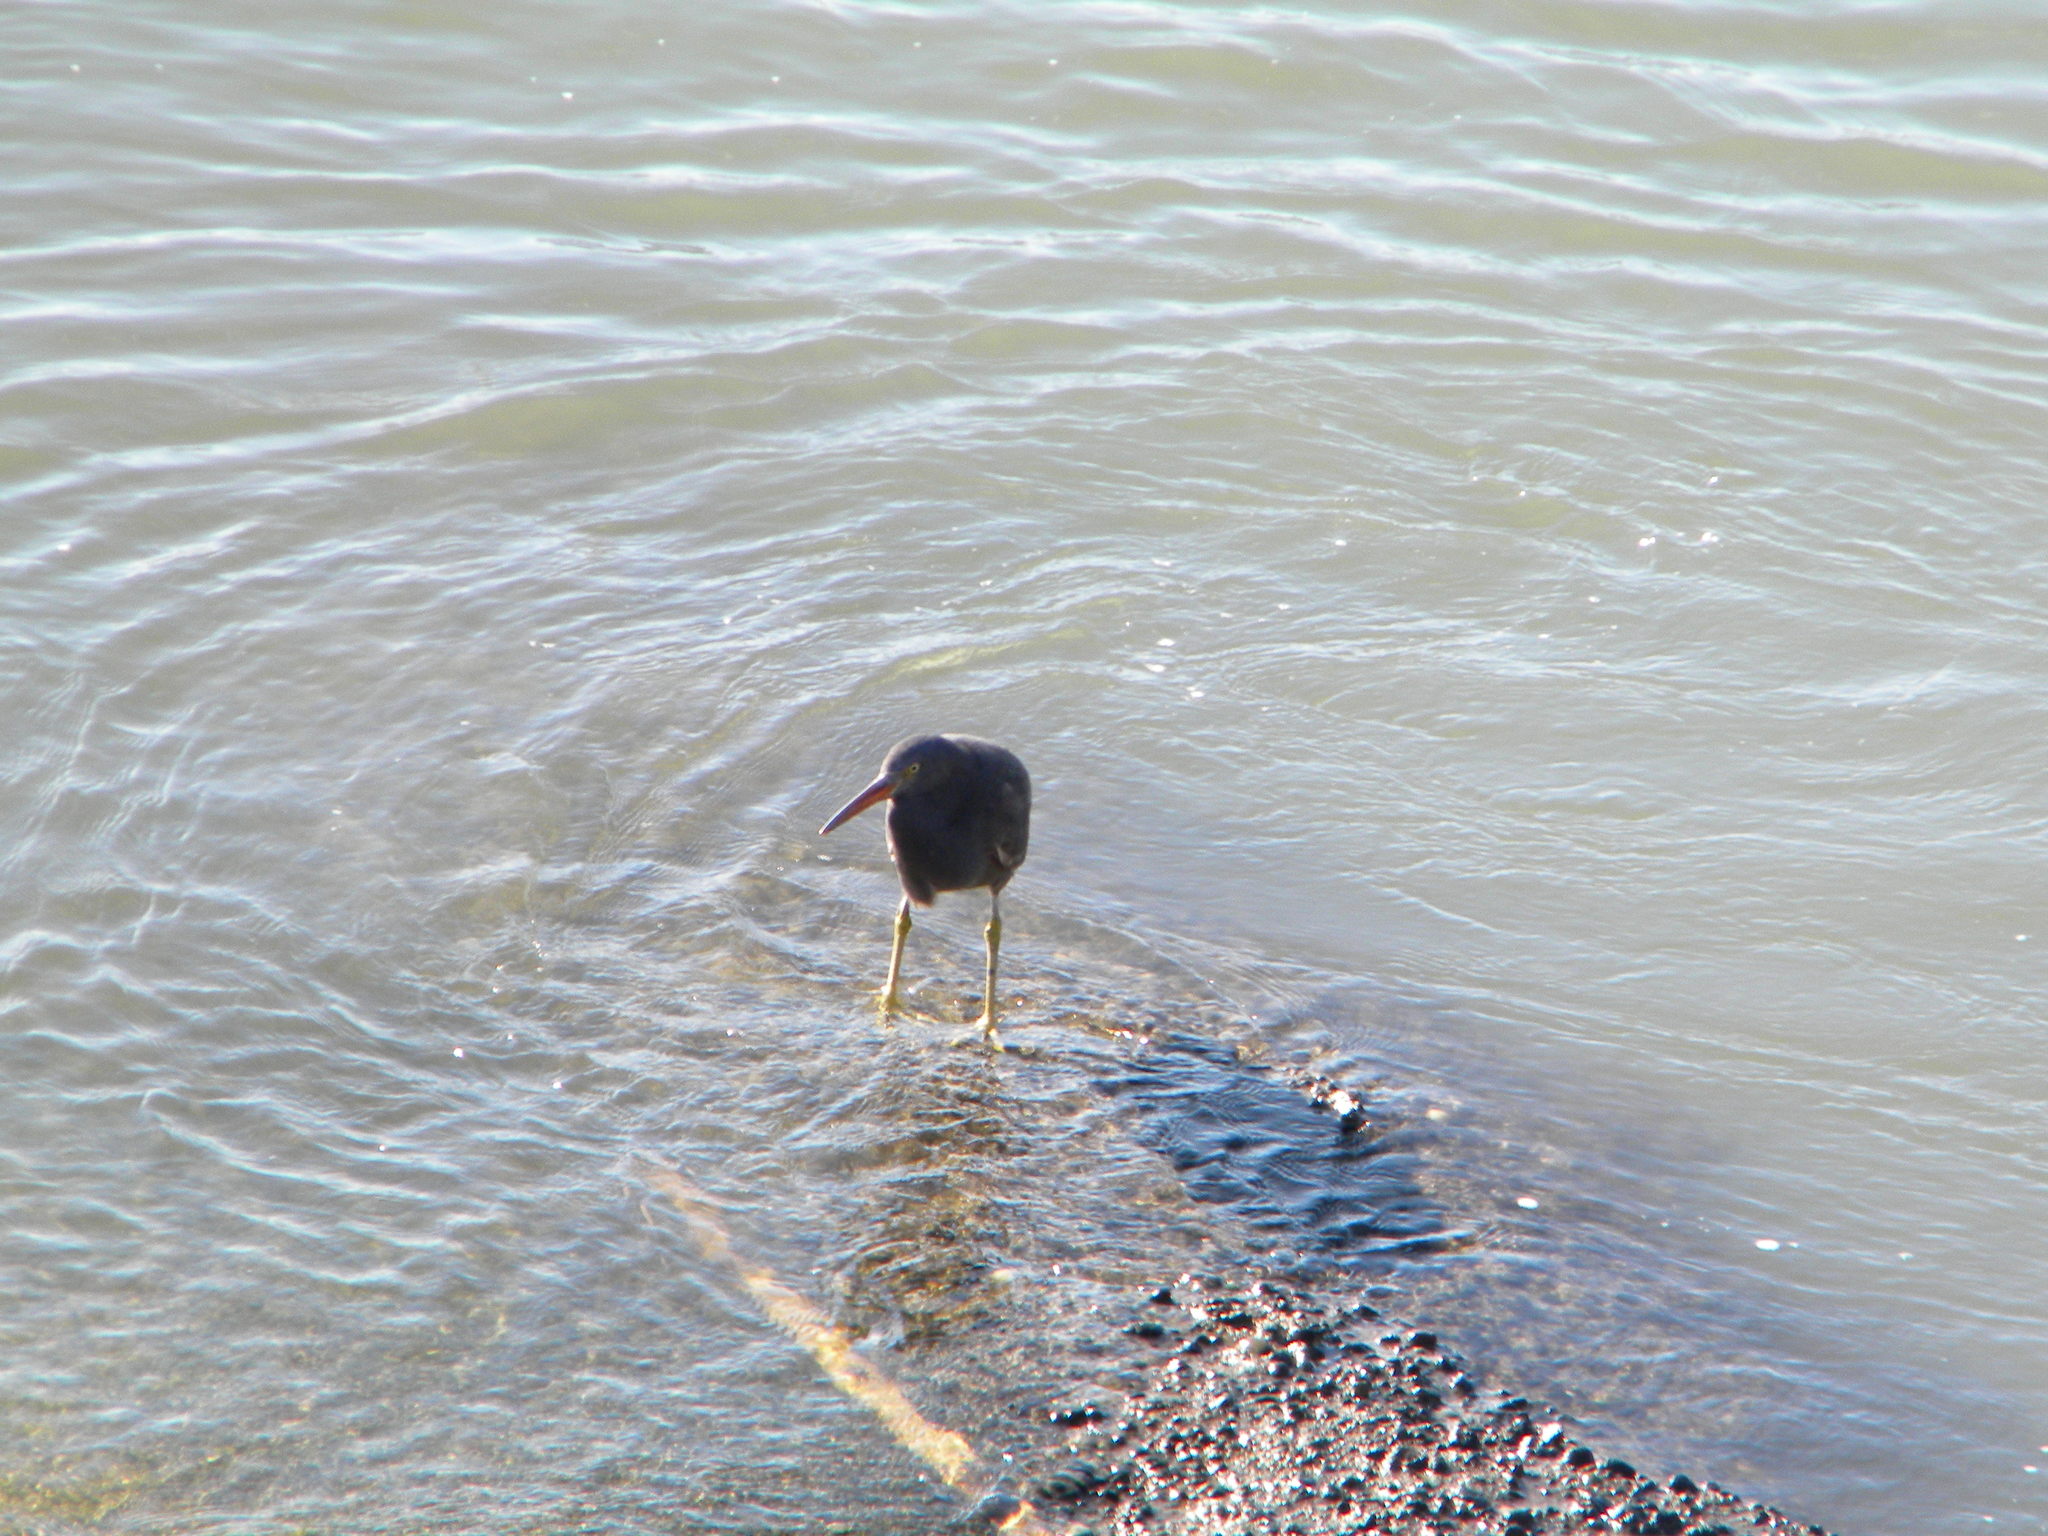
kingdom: Animalia
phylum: Chordata
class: Aves
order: Pelecaniformes
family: Ardeidae
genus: Egretta
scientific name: Egretta sacra
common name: Pacific reef heron
